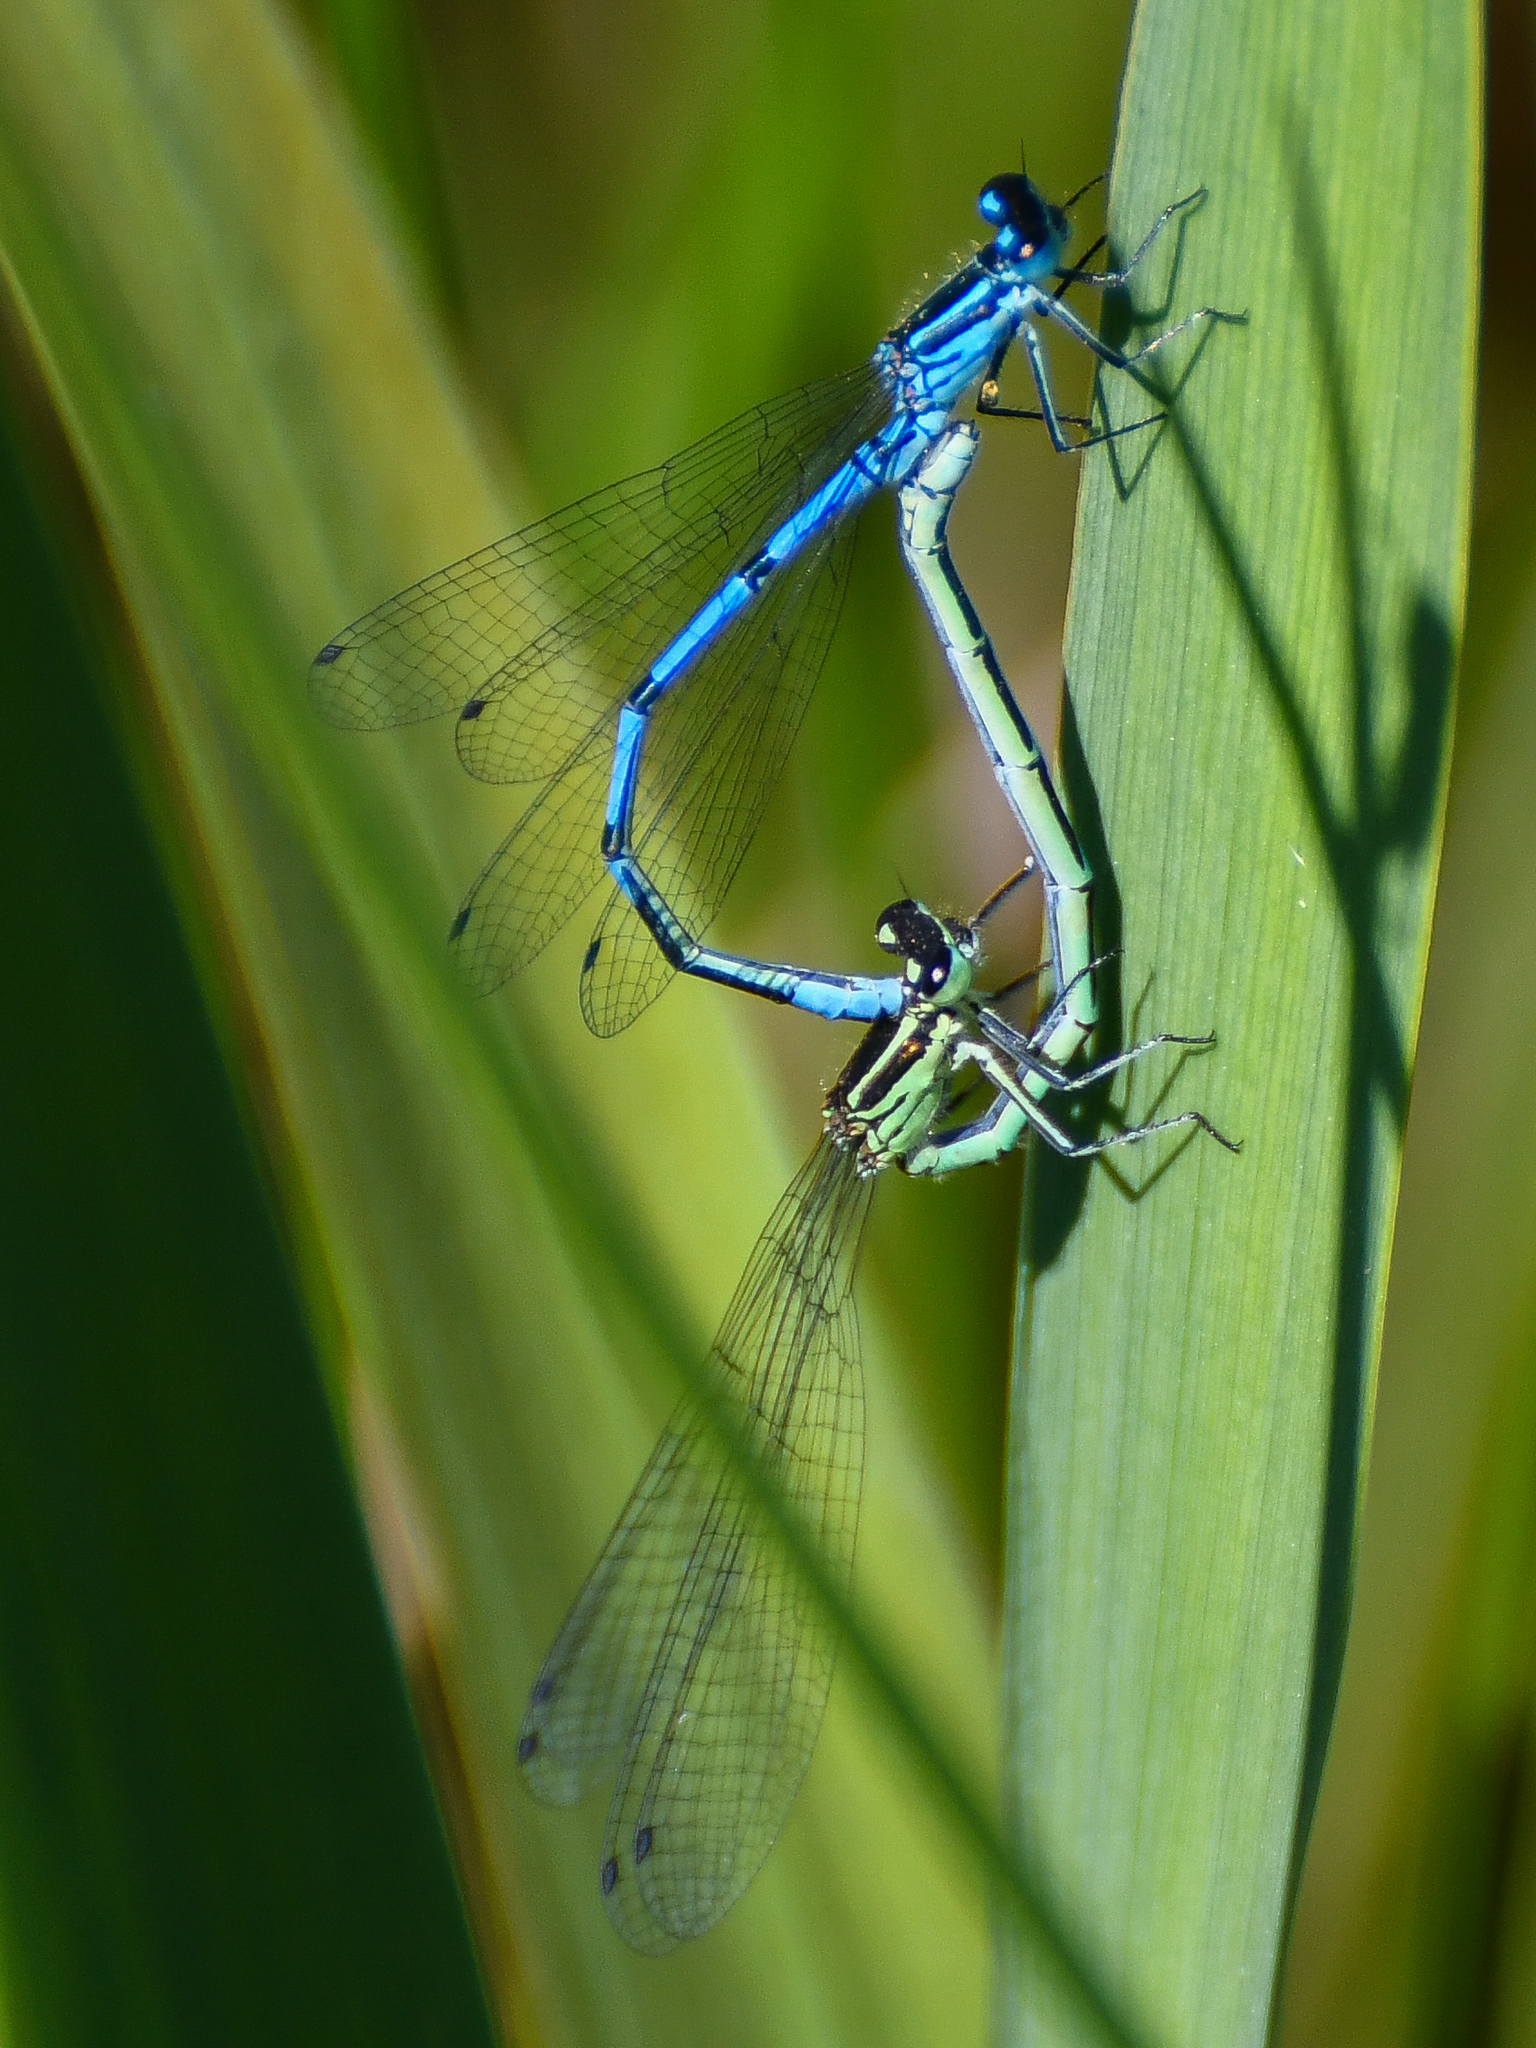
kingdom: Animalia
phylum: Arthropoda
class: Insecta
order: Odonata
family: Coenagrionidae
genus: Coenagrion
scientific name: Coenagrion puella
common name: Azure damselfly
